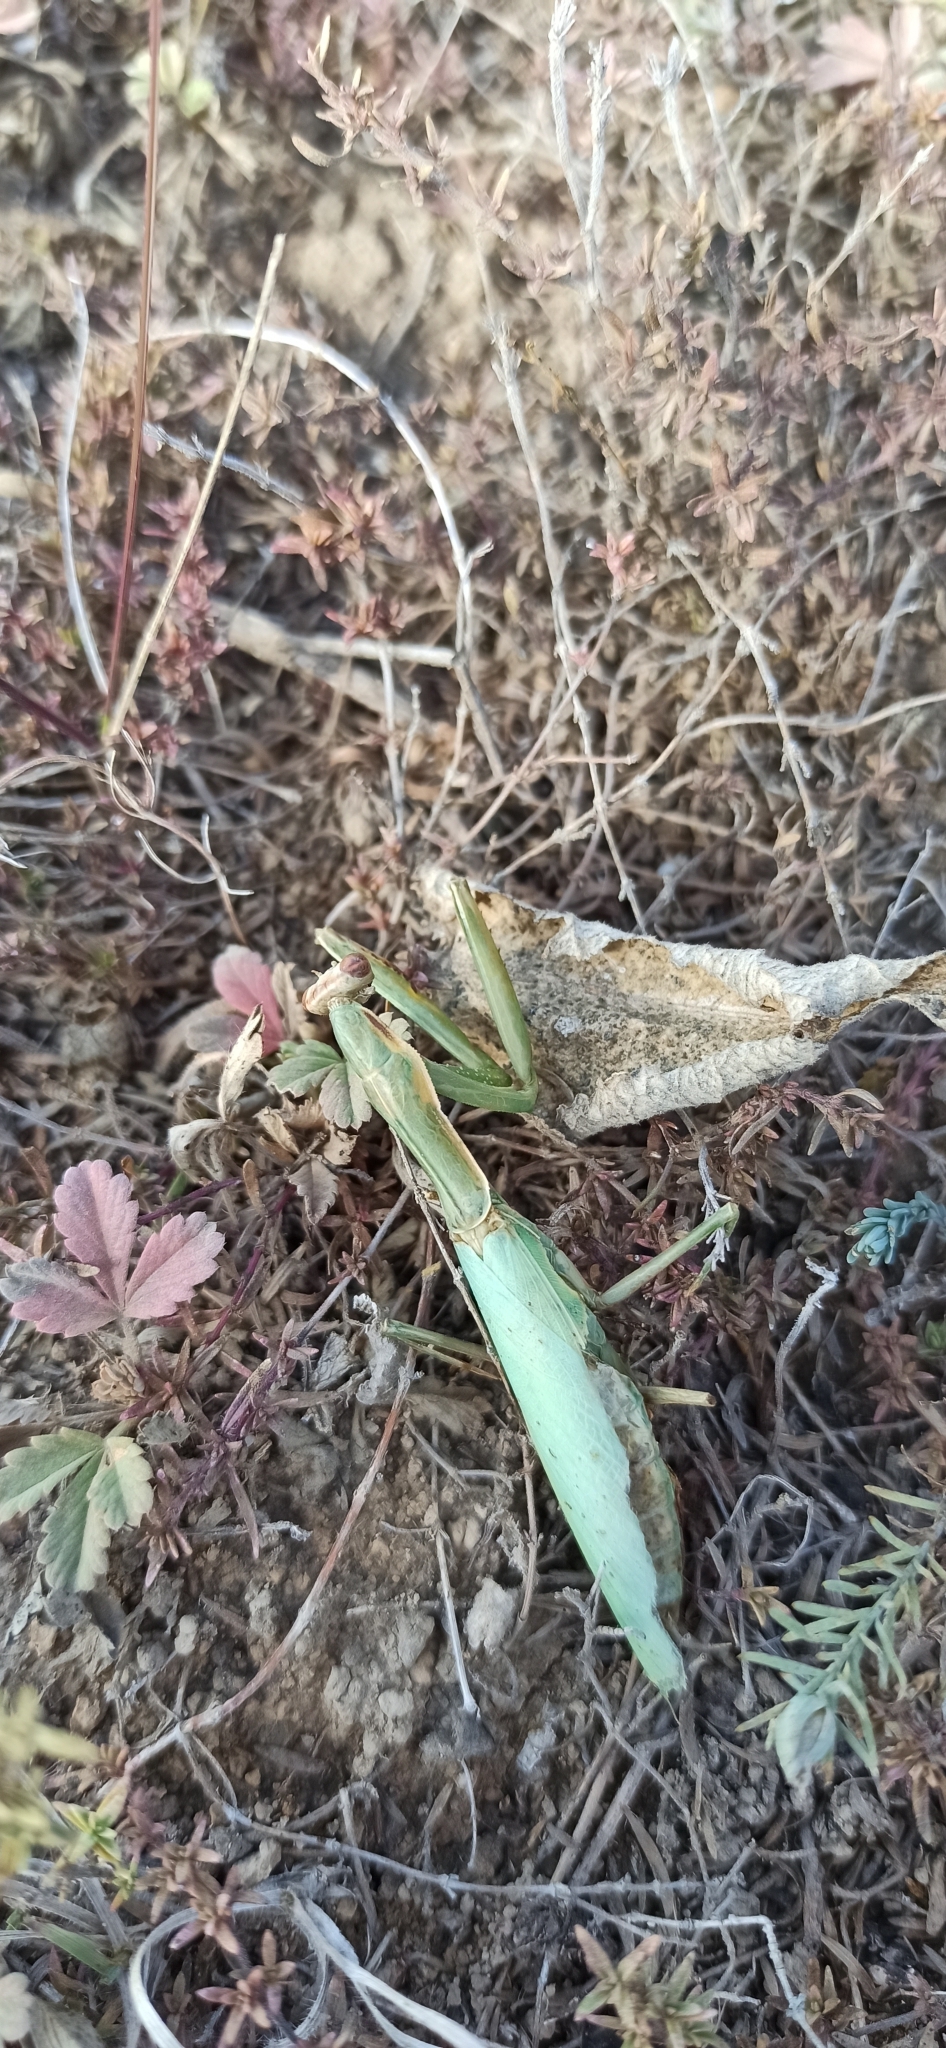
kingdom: Animalia
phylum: Arthropoda
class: Insecta
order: Mantodea
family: Mantidae
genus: Mantis
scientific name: Mantis religiosa
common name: Praying mantis
